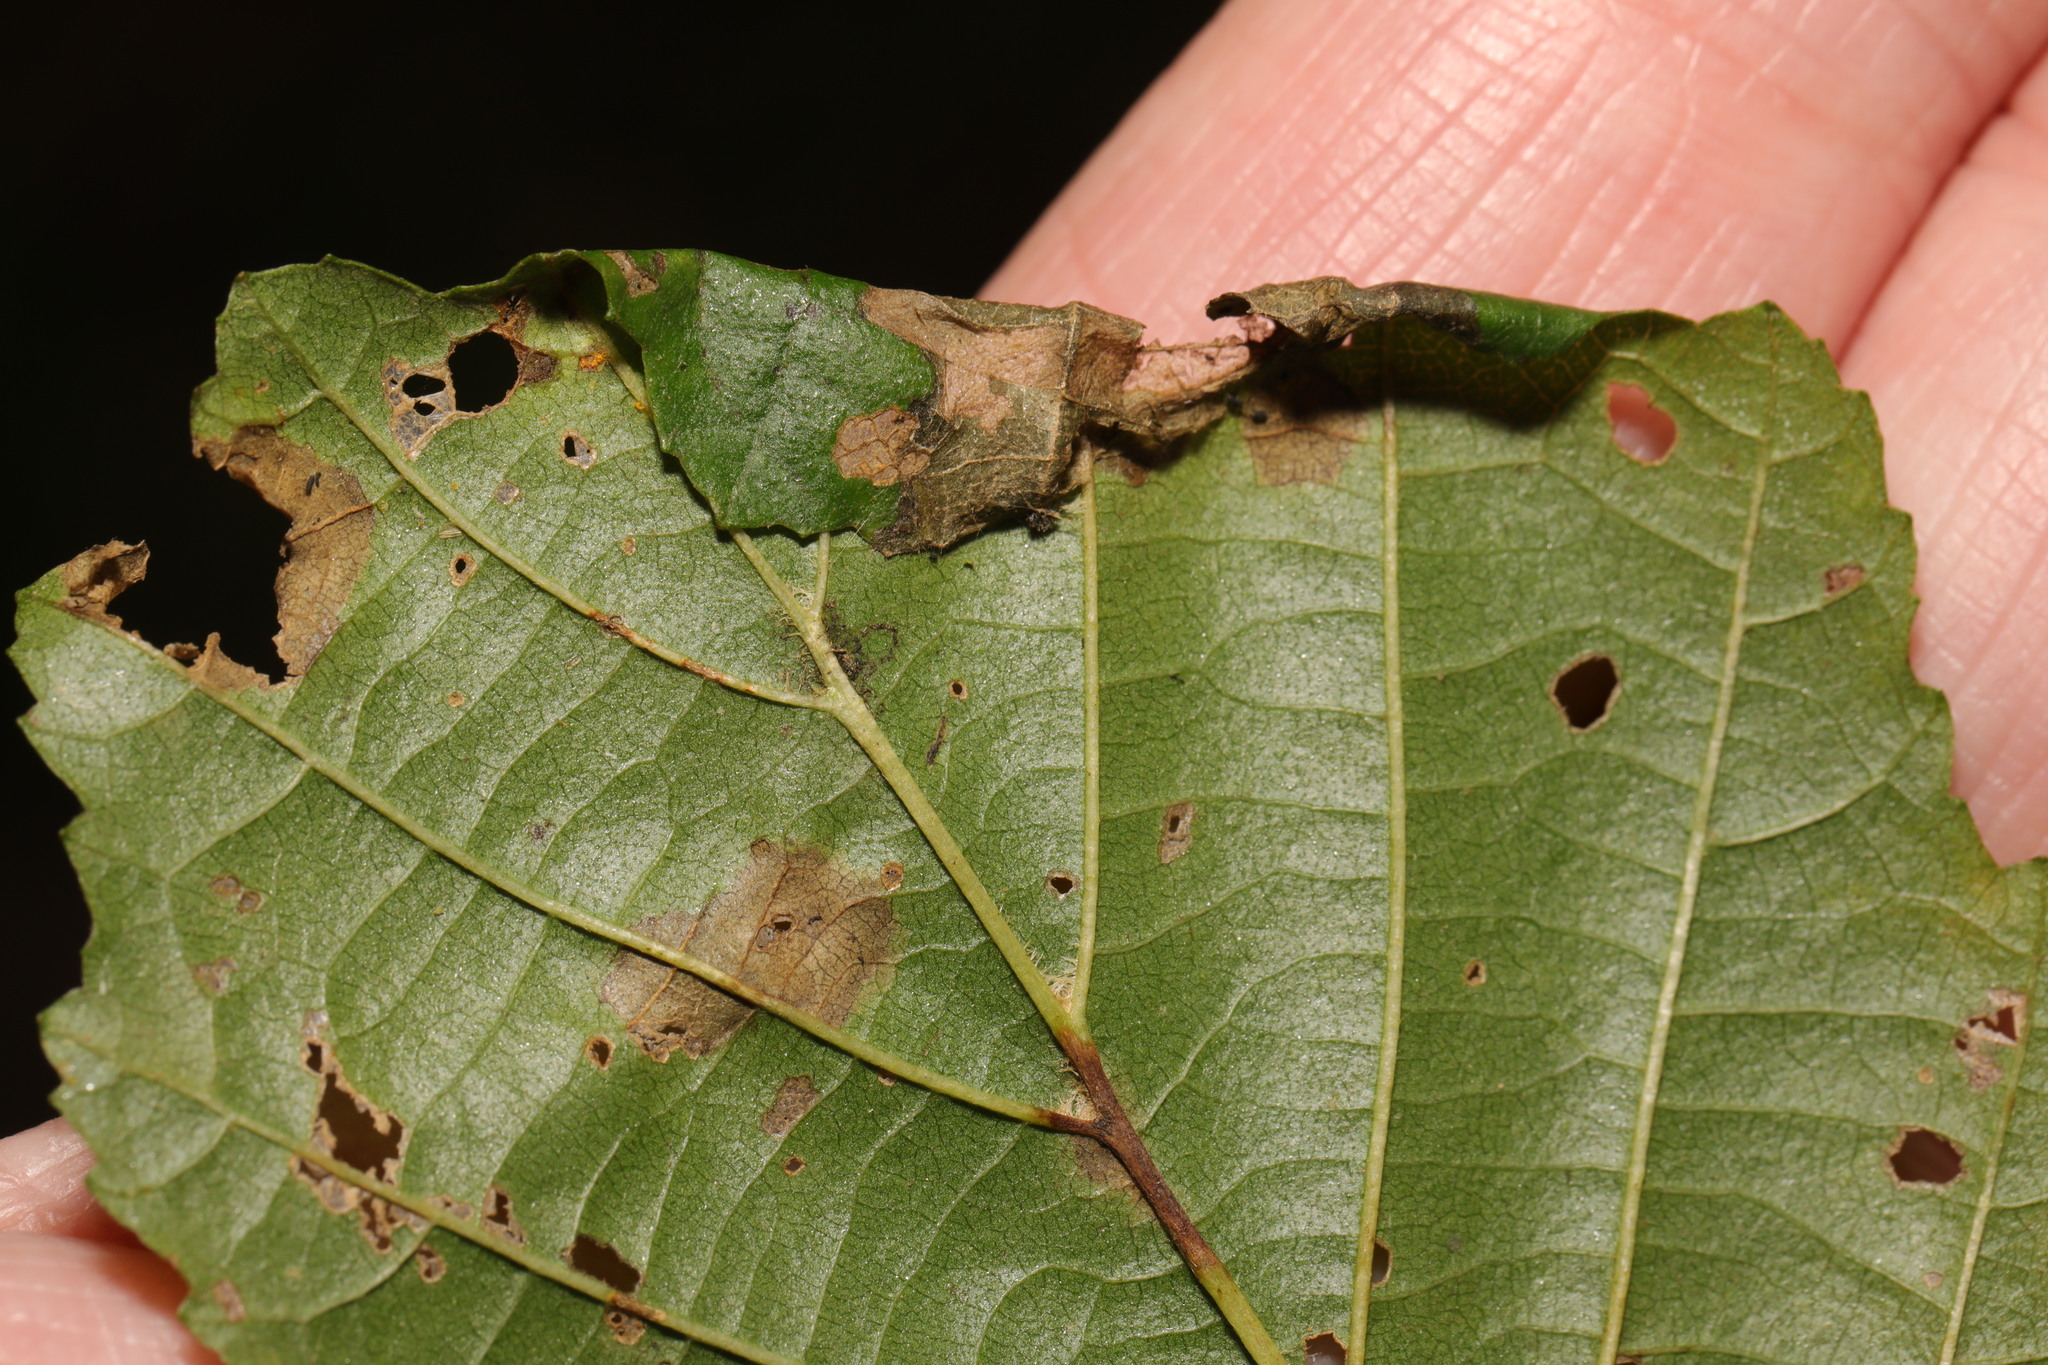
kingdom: Animalia
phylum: Arthropoda
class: Insecta
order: Lepidoptera
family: Gracillariidae
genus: Caloptilia
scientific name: Caloptilia falconipennella
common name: Scarce alder slender
